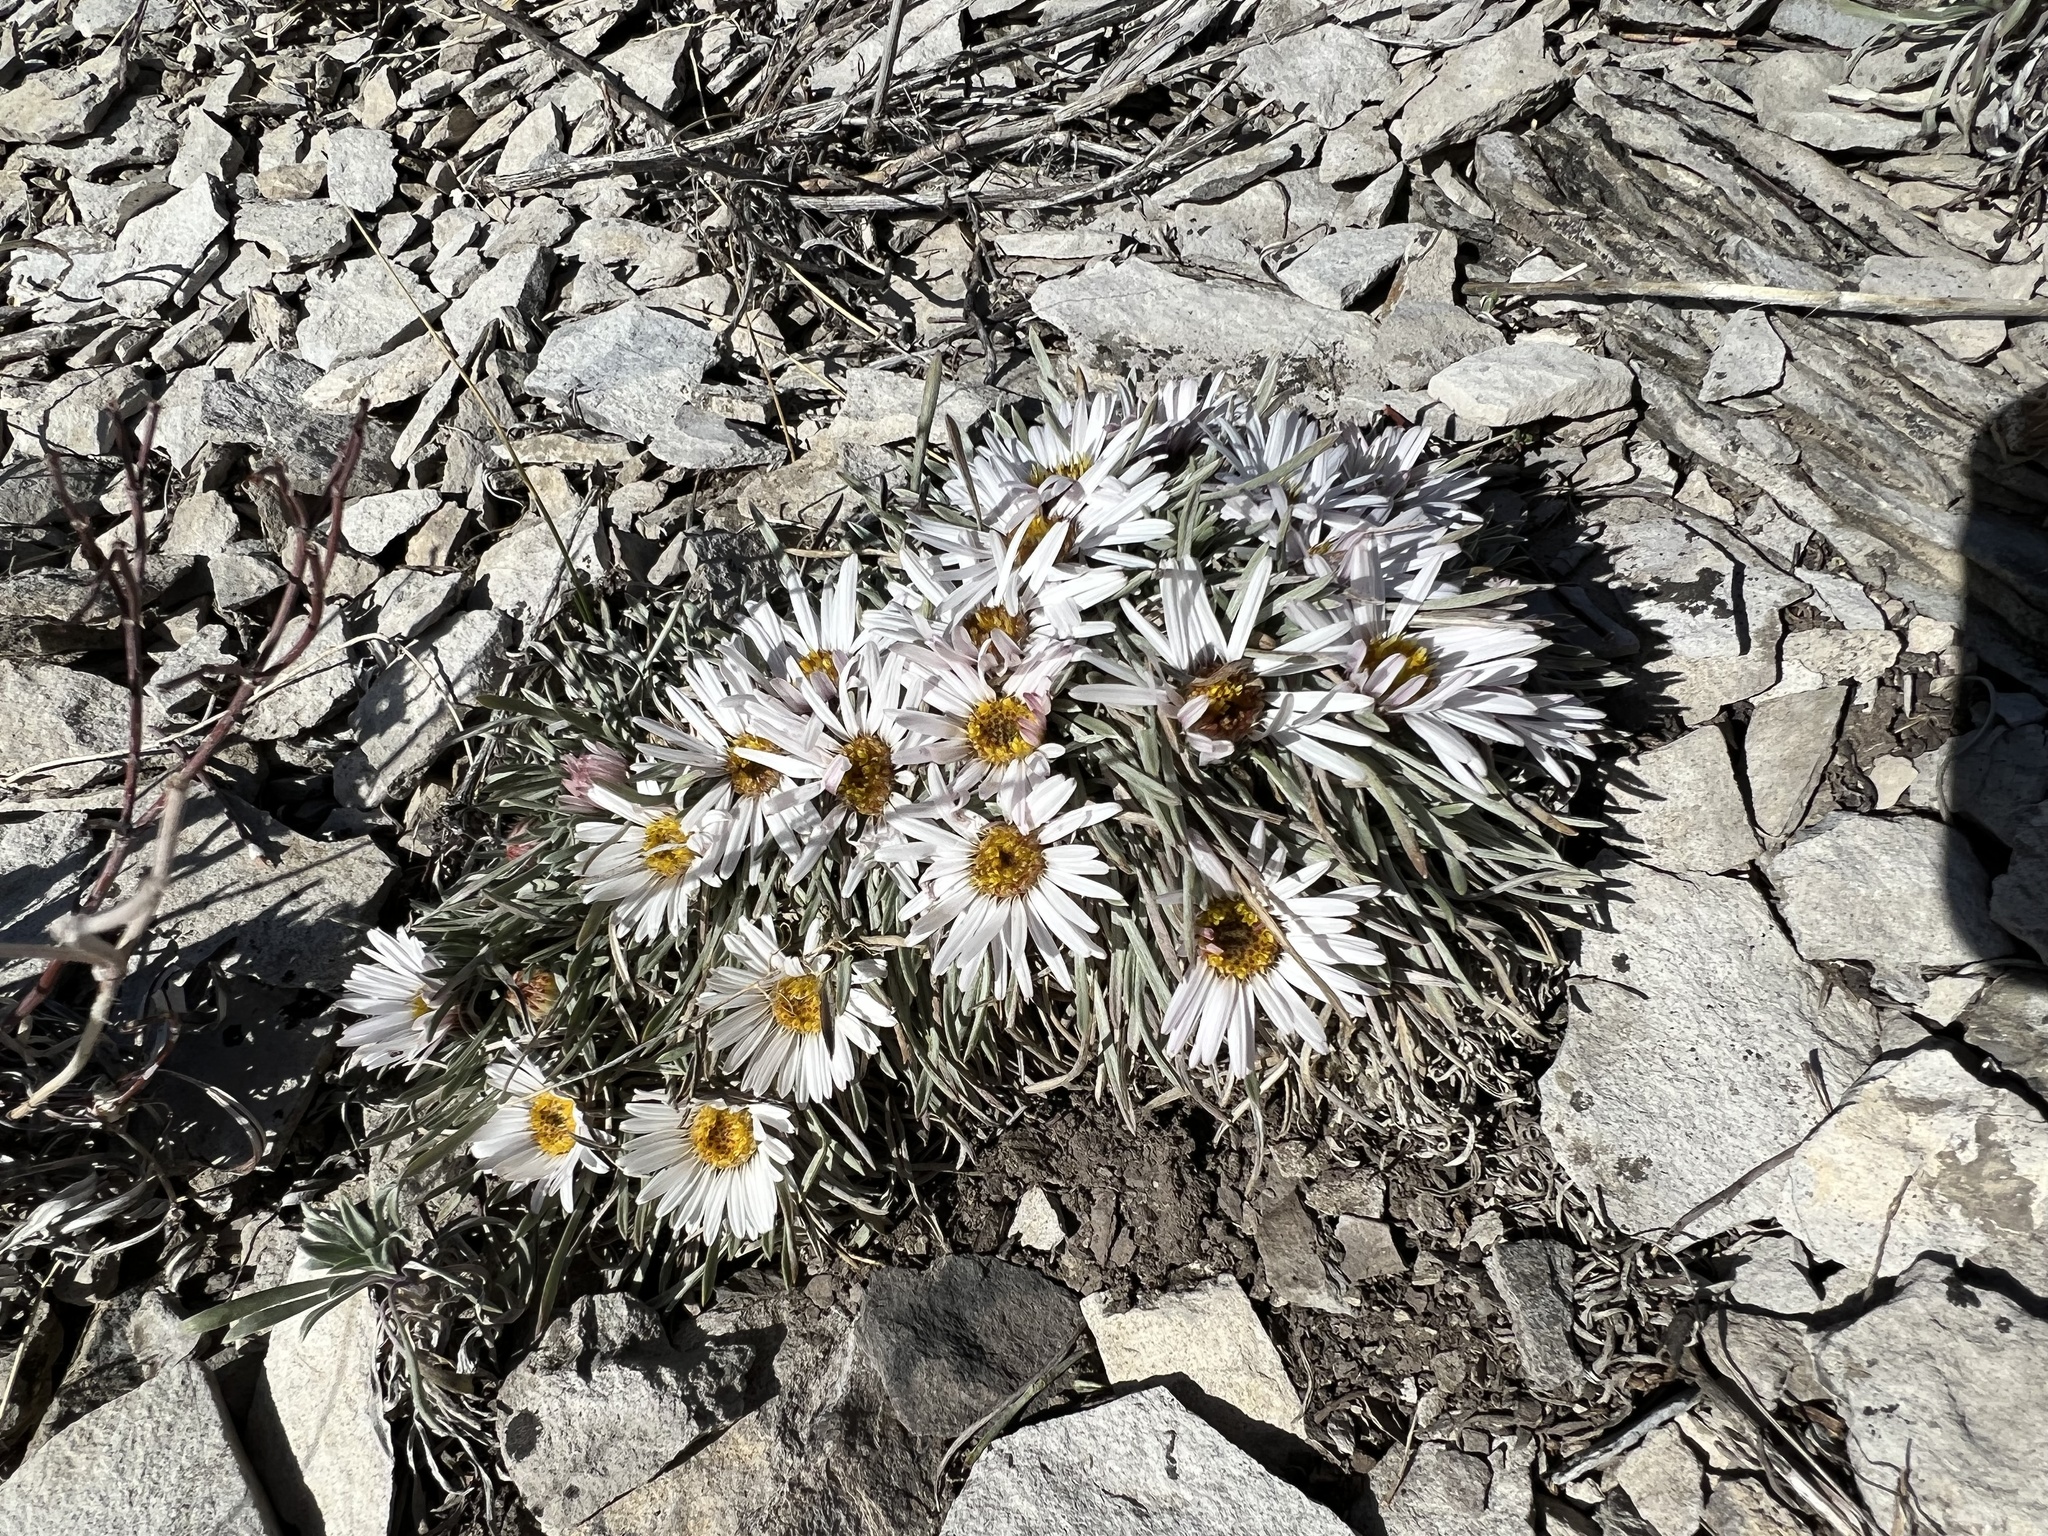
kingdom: Plantae
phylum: Tracheophyta
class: Magnoliopsida
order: Asterales
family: Asteraceae
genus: Townsendia
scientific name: Townsendia hookeri
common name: Hooker's townsend daisy
